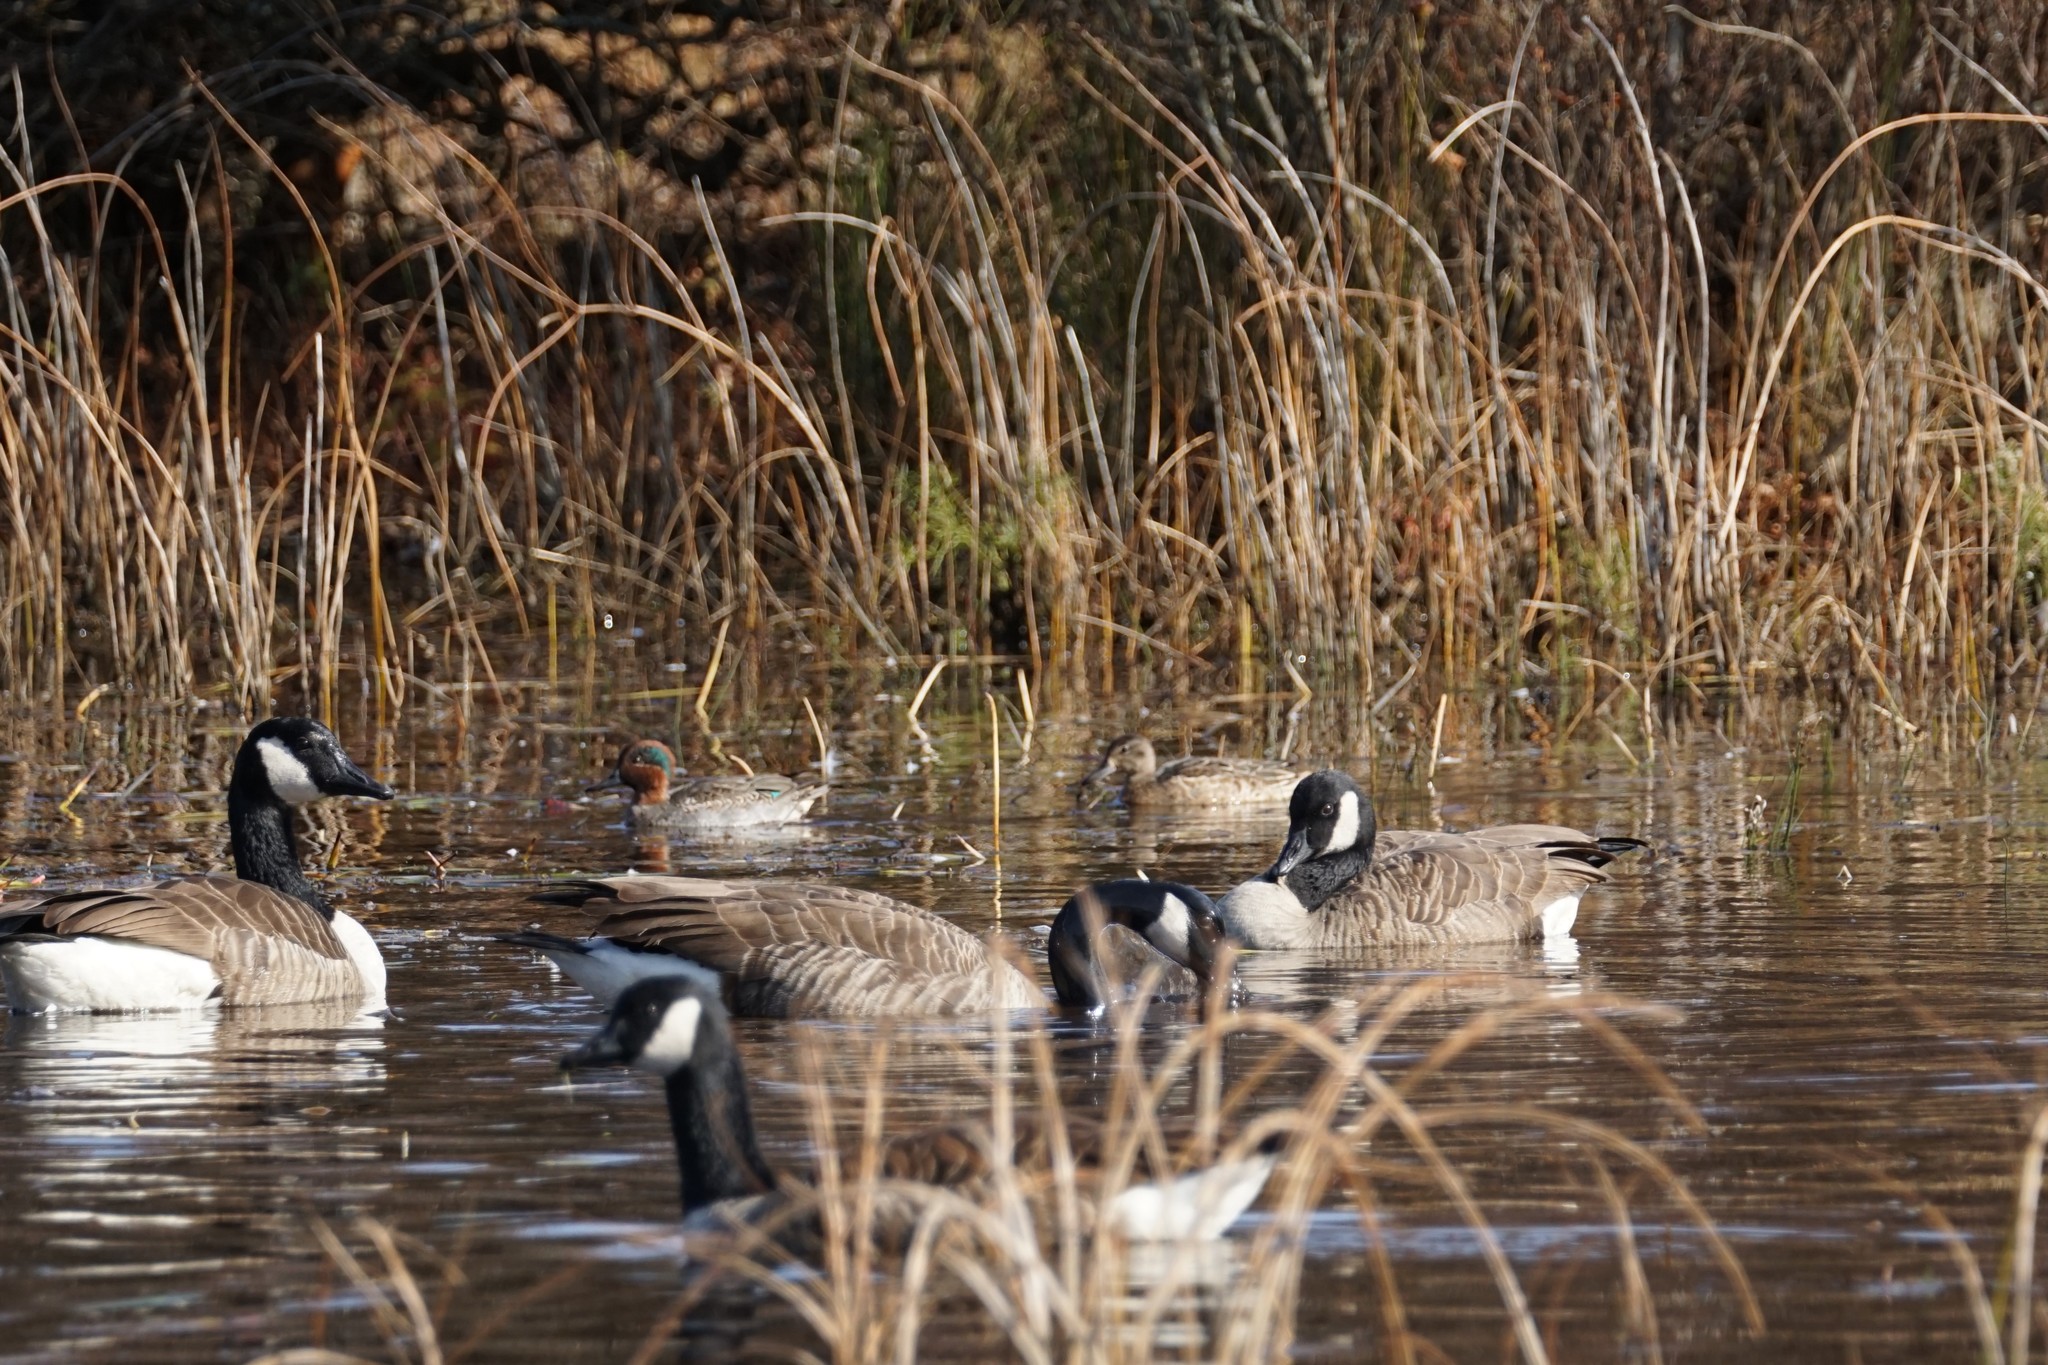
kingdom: Animalia
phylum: Chordata
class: Aves
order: Anseriformes
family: Anatidae
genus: Anas
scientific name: Anas crecca
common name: Eurasian teal
